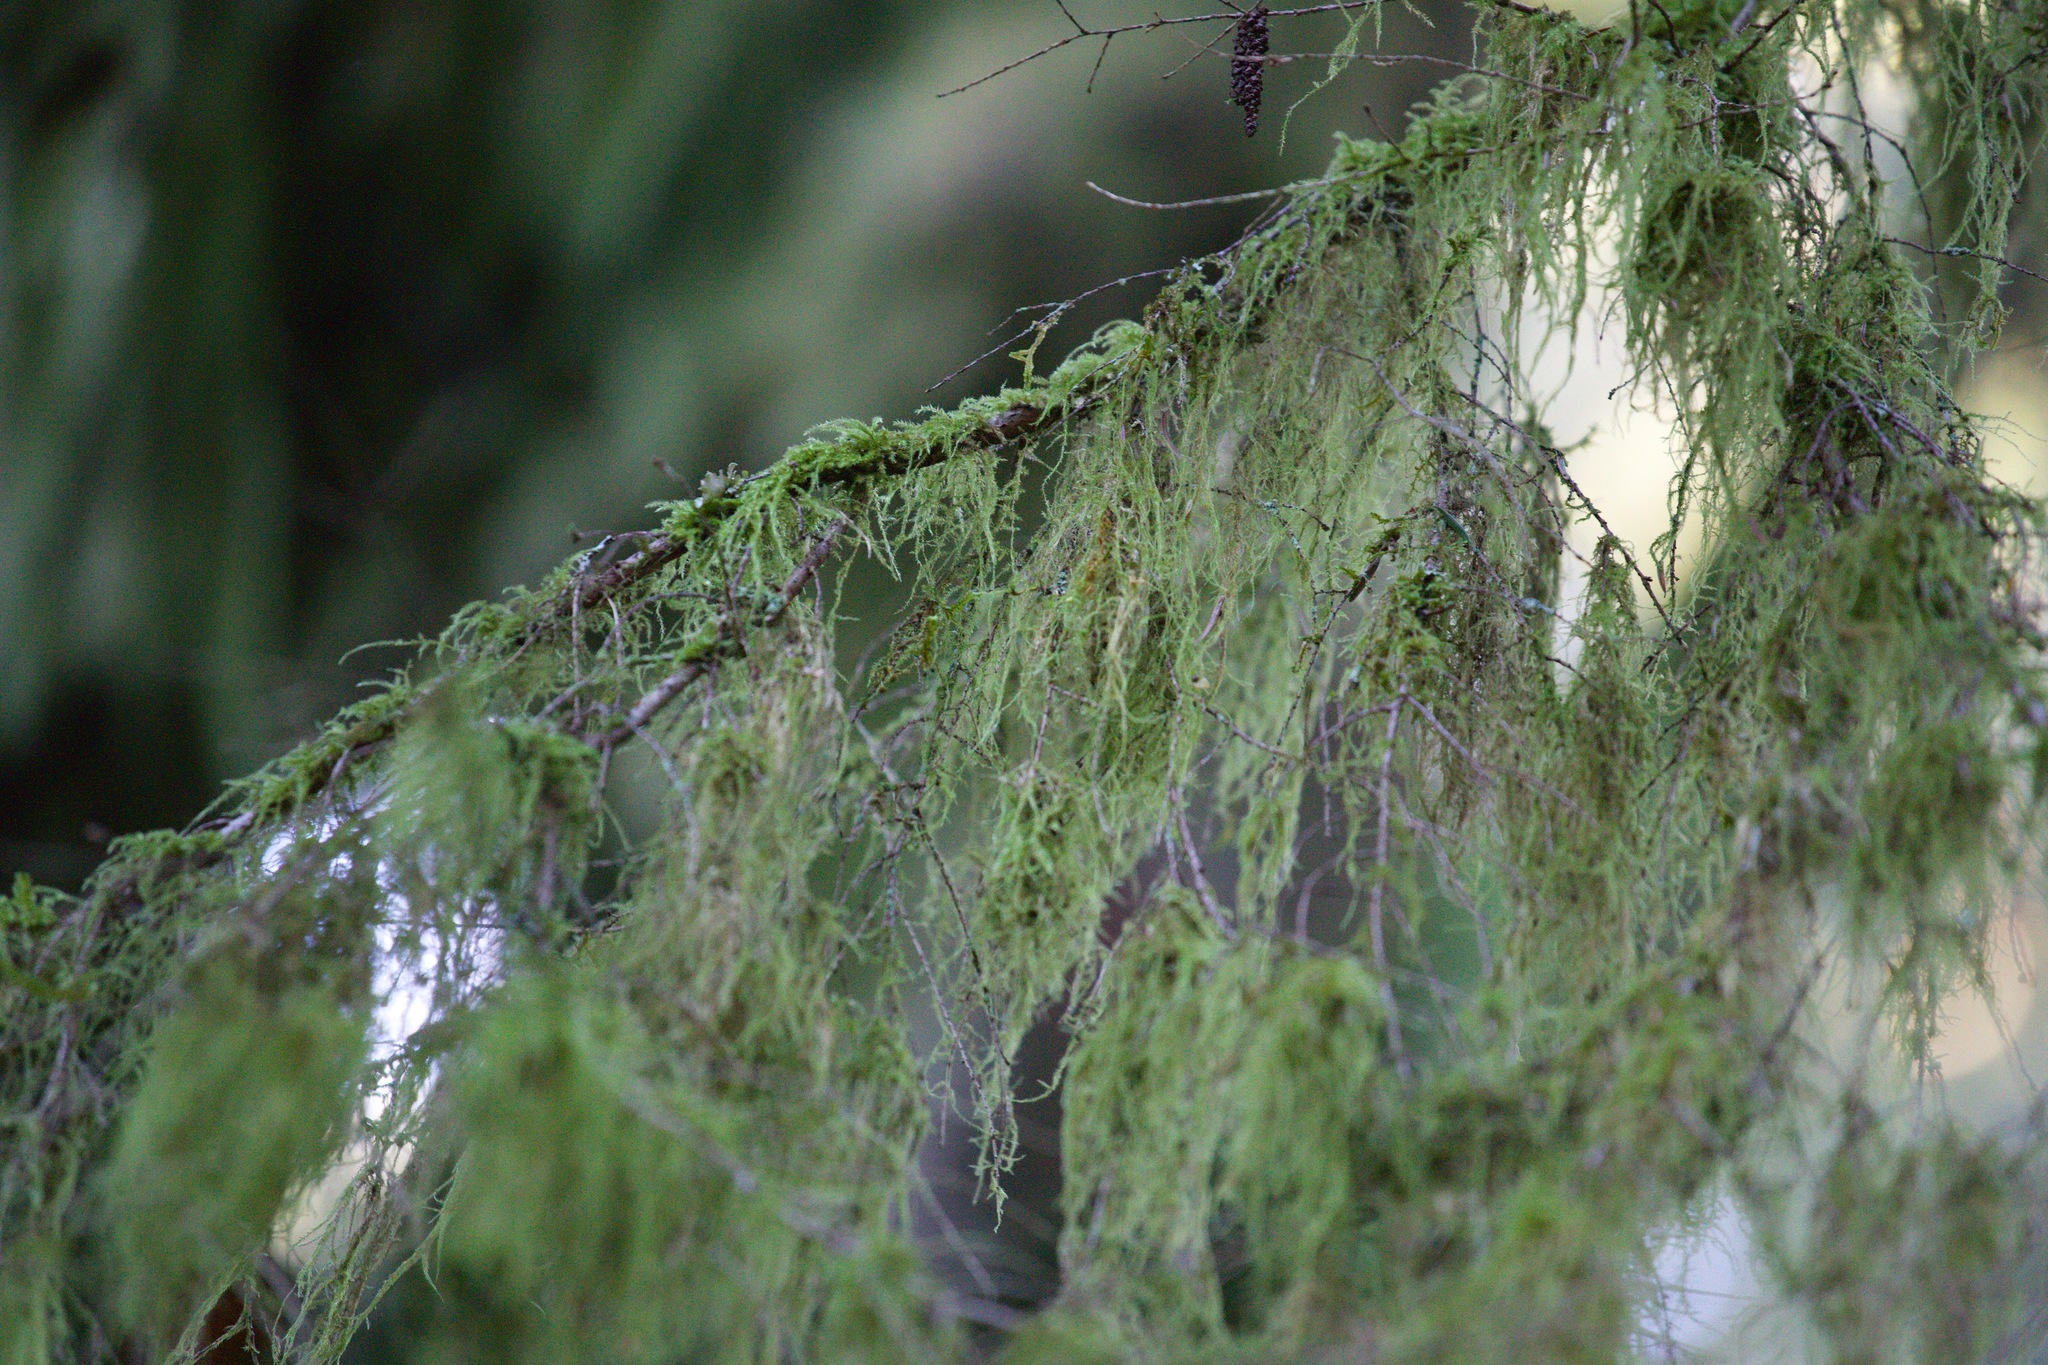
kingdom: Plantae
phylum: Bryophyta
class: Bryopsida
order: Hypnales
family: Lembophyllaceae
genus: Pseudisothecium
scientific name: Pseudisothecium stoloniferum
